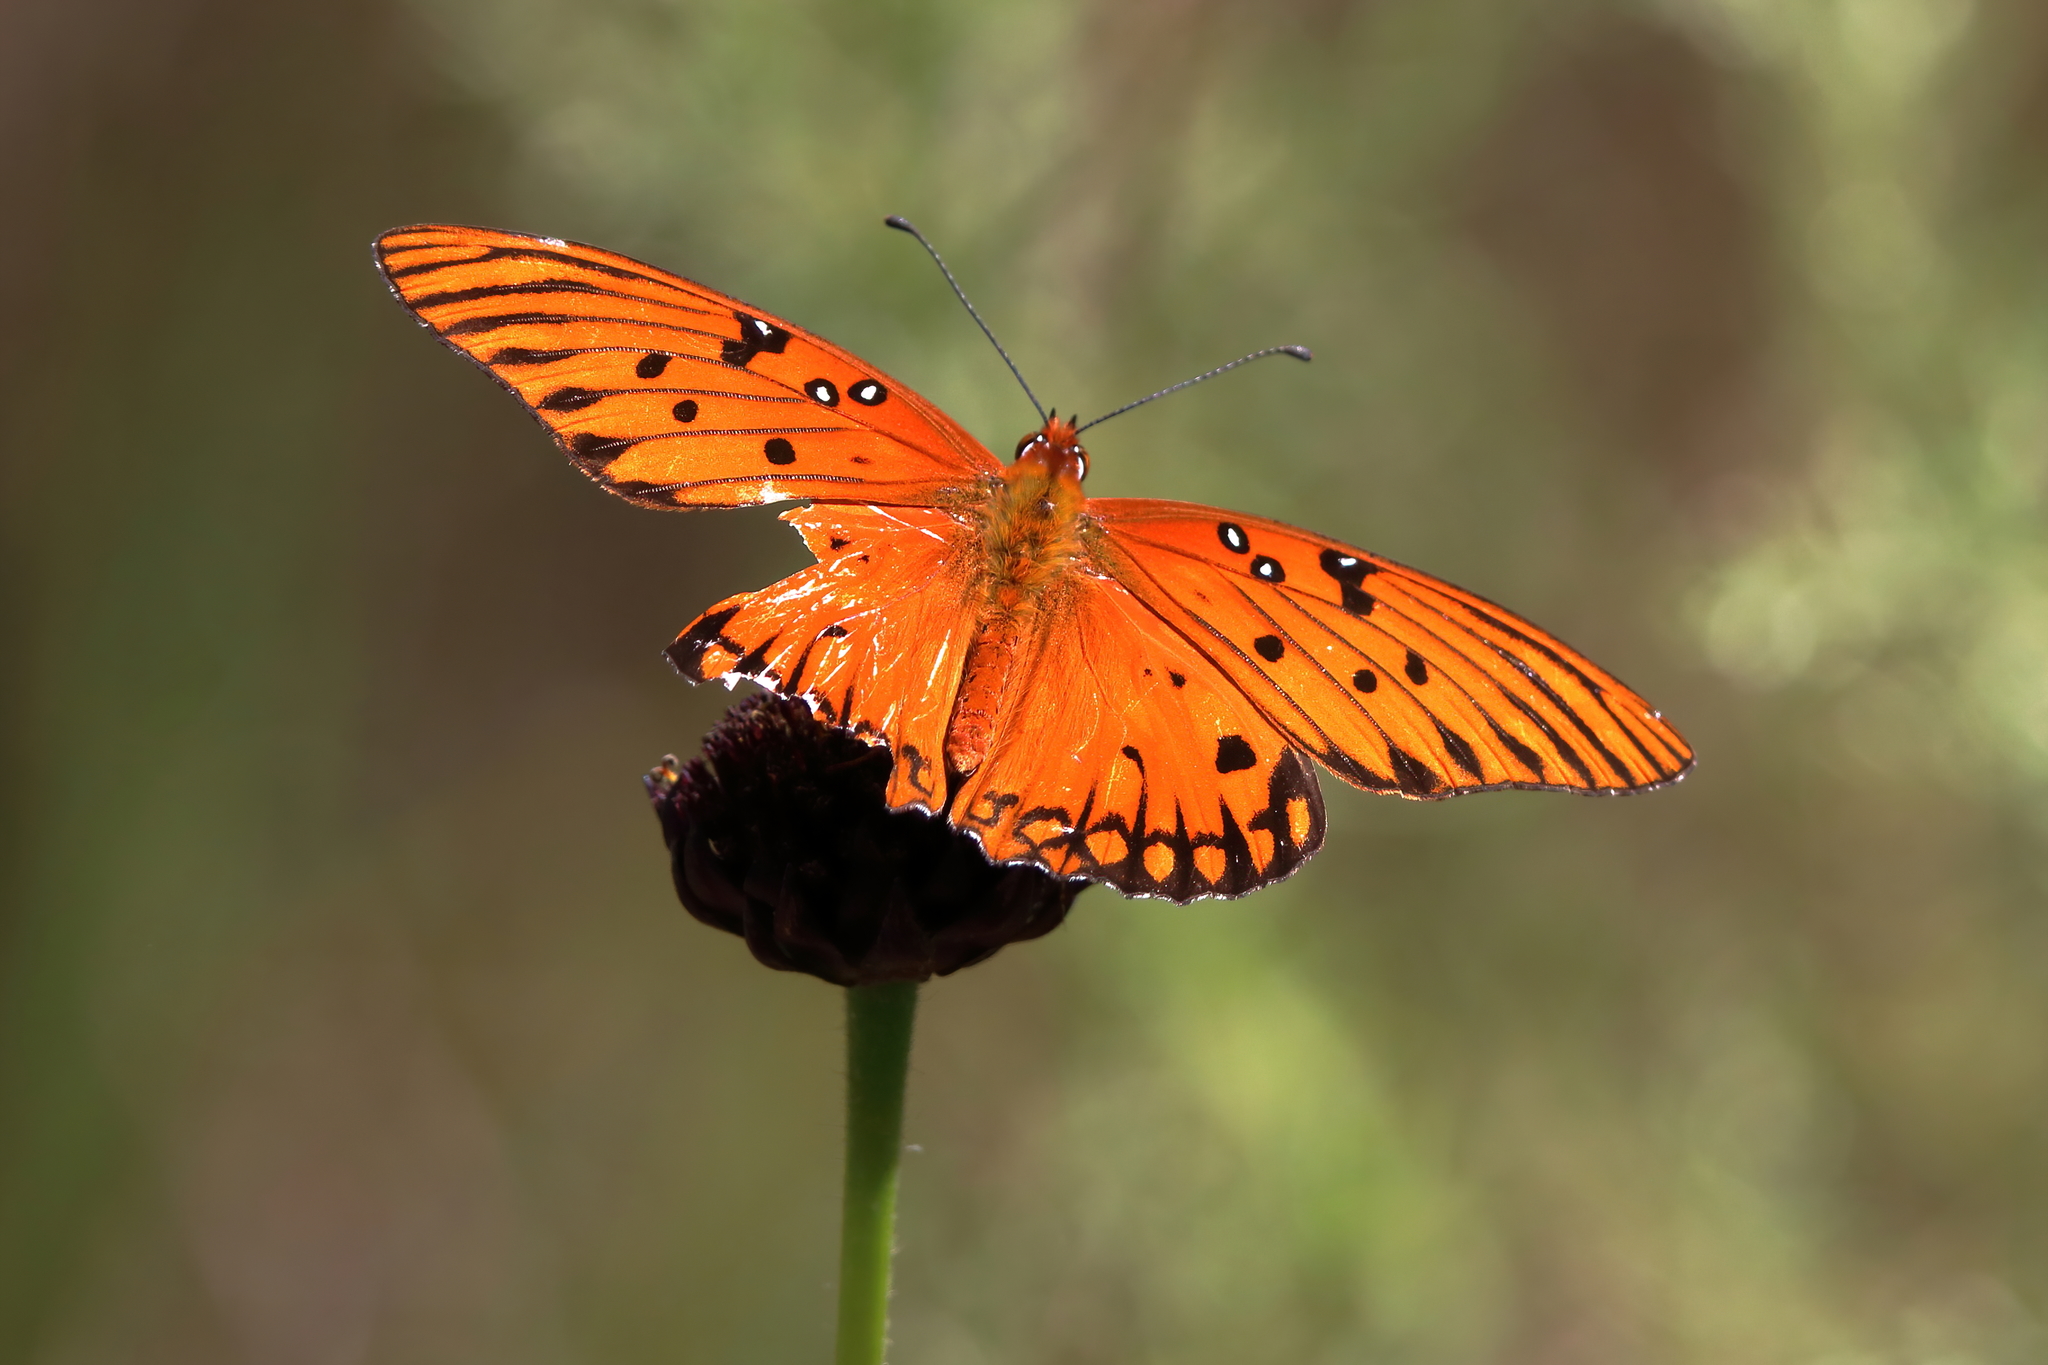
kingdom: Animalia
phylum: Arthropoda
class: Insecta
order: Lepidoptera
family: Nymphalidae
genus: Dione
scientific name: Dione vanillae
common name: Gulf fritillary
